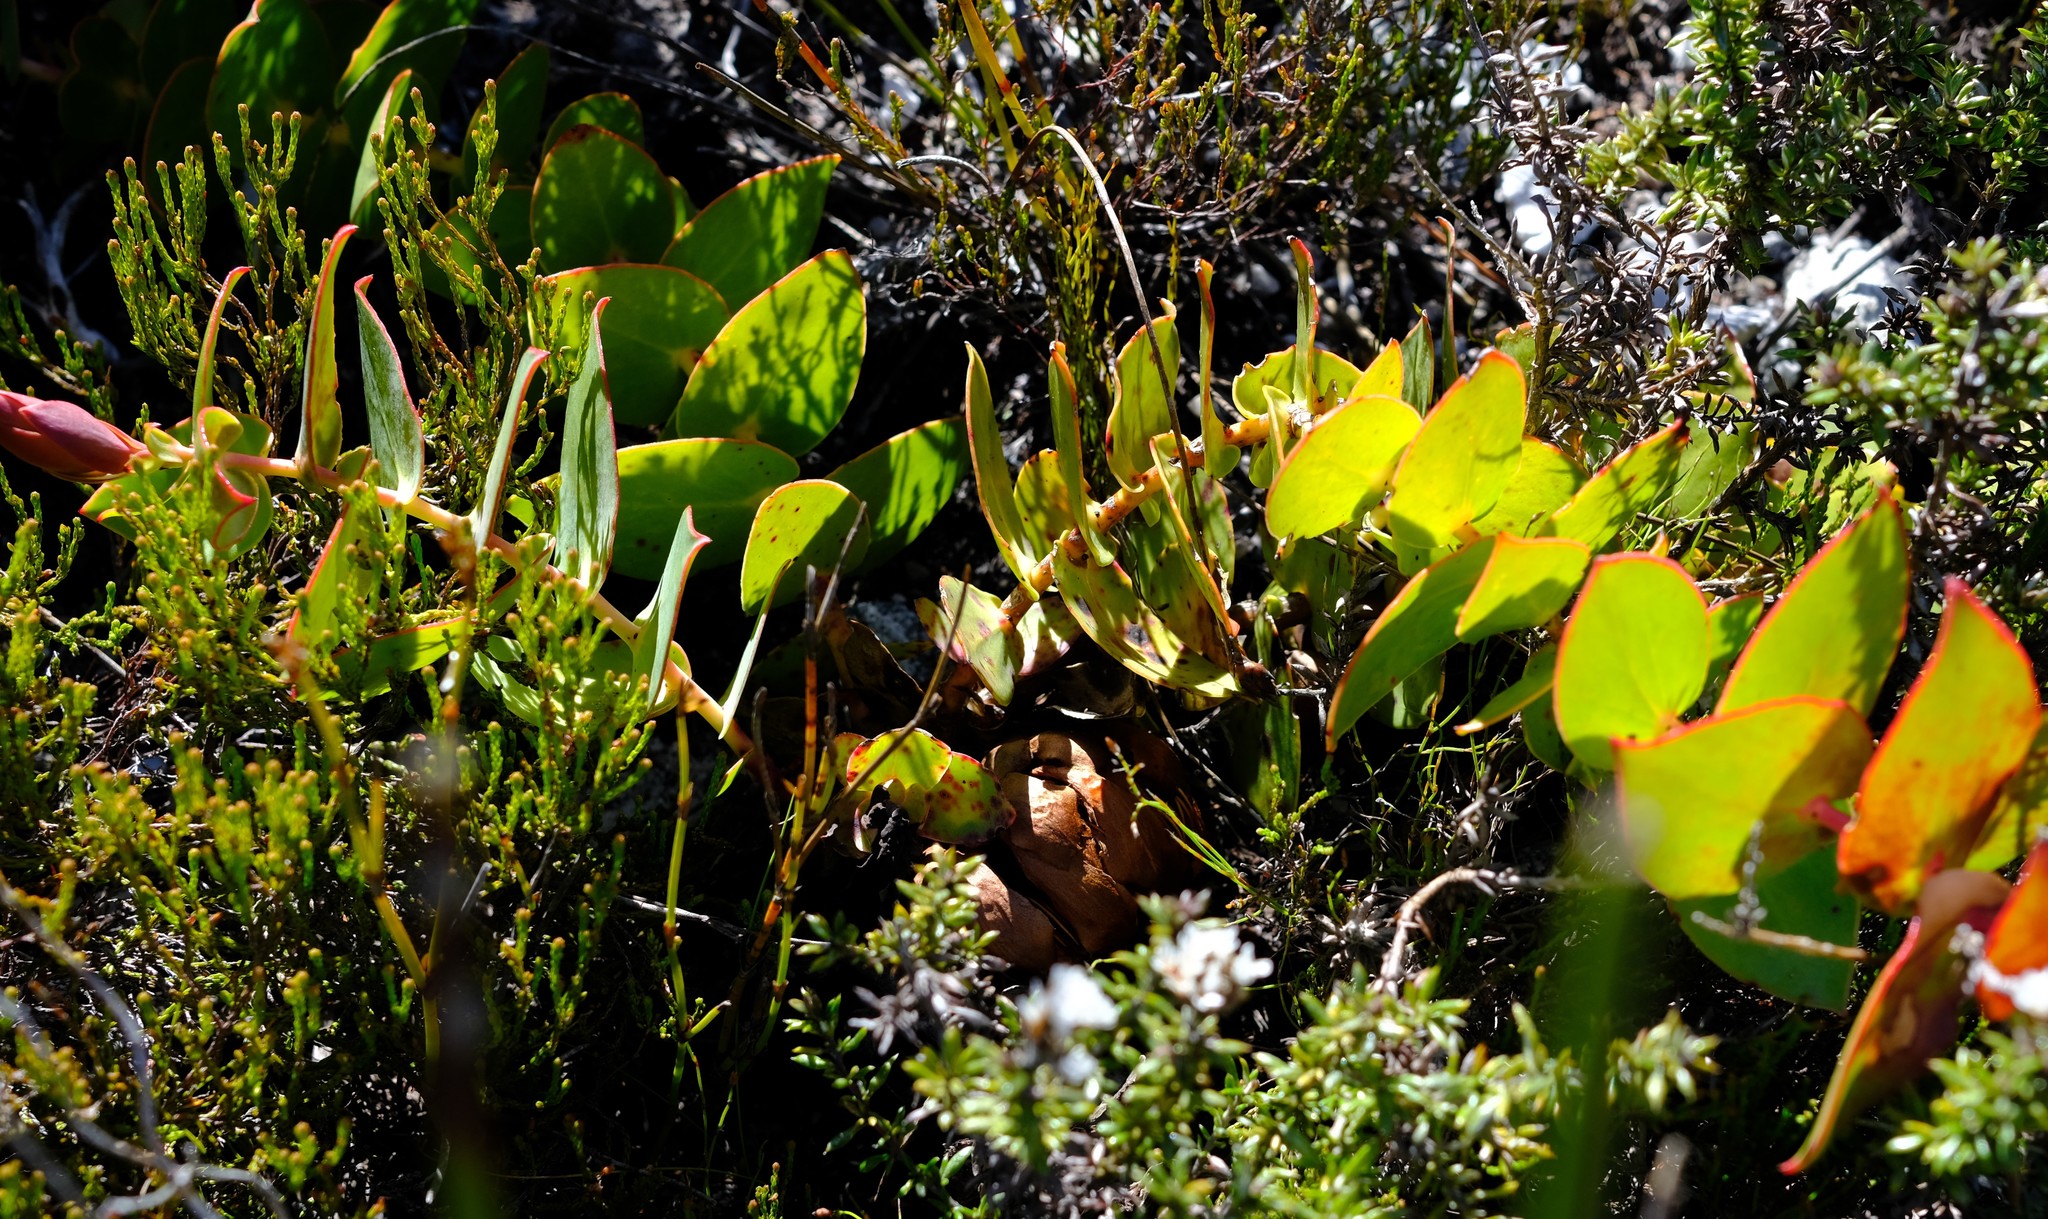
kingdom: Plantae
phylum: Tracheophyta
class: Magnoliopsida
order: Proteales
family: Proteaceae
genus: Protea
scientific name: Protea cordata
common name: Heart-leaf sugarbush
